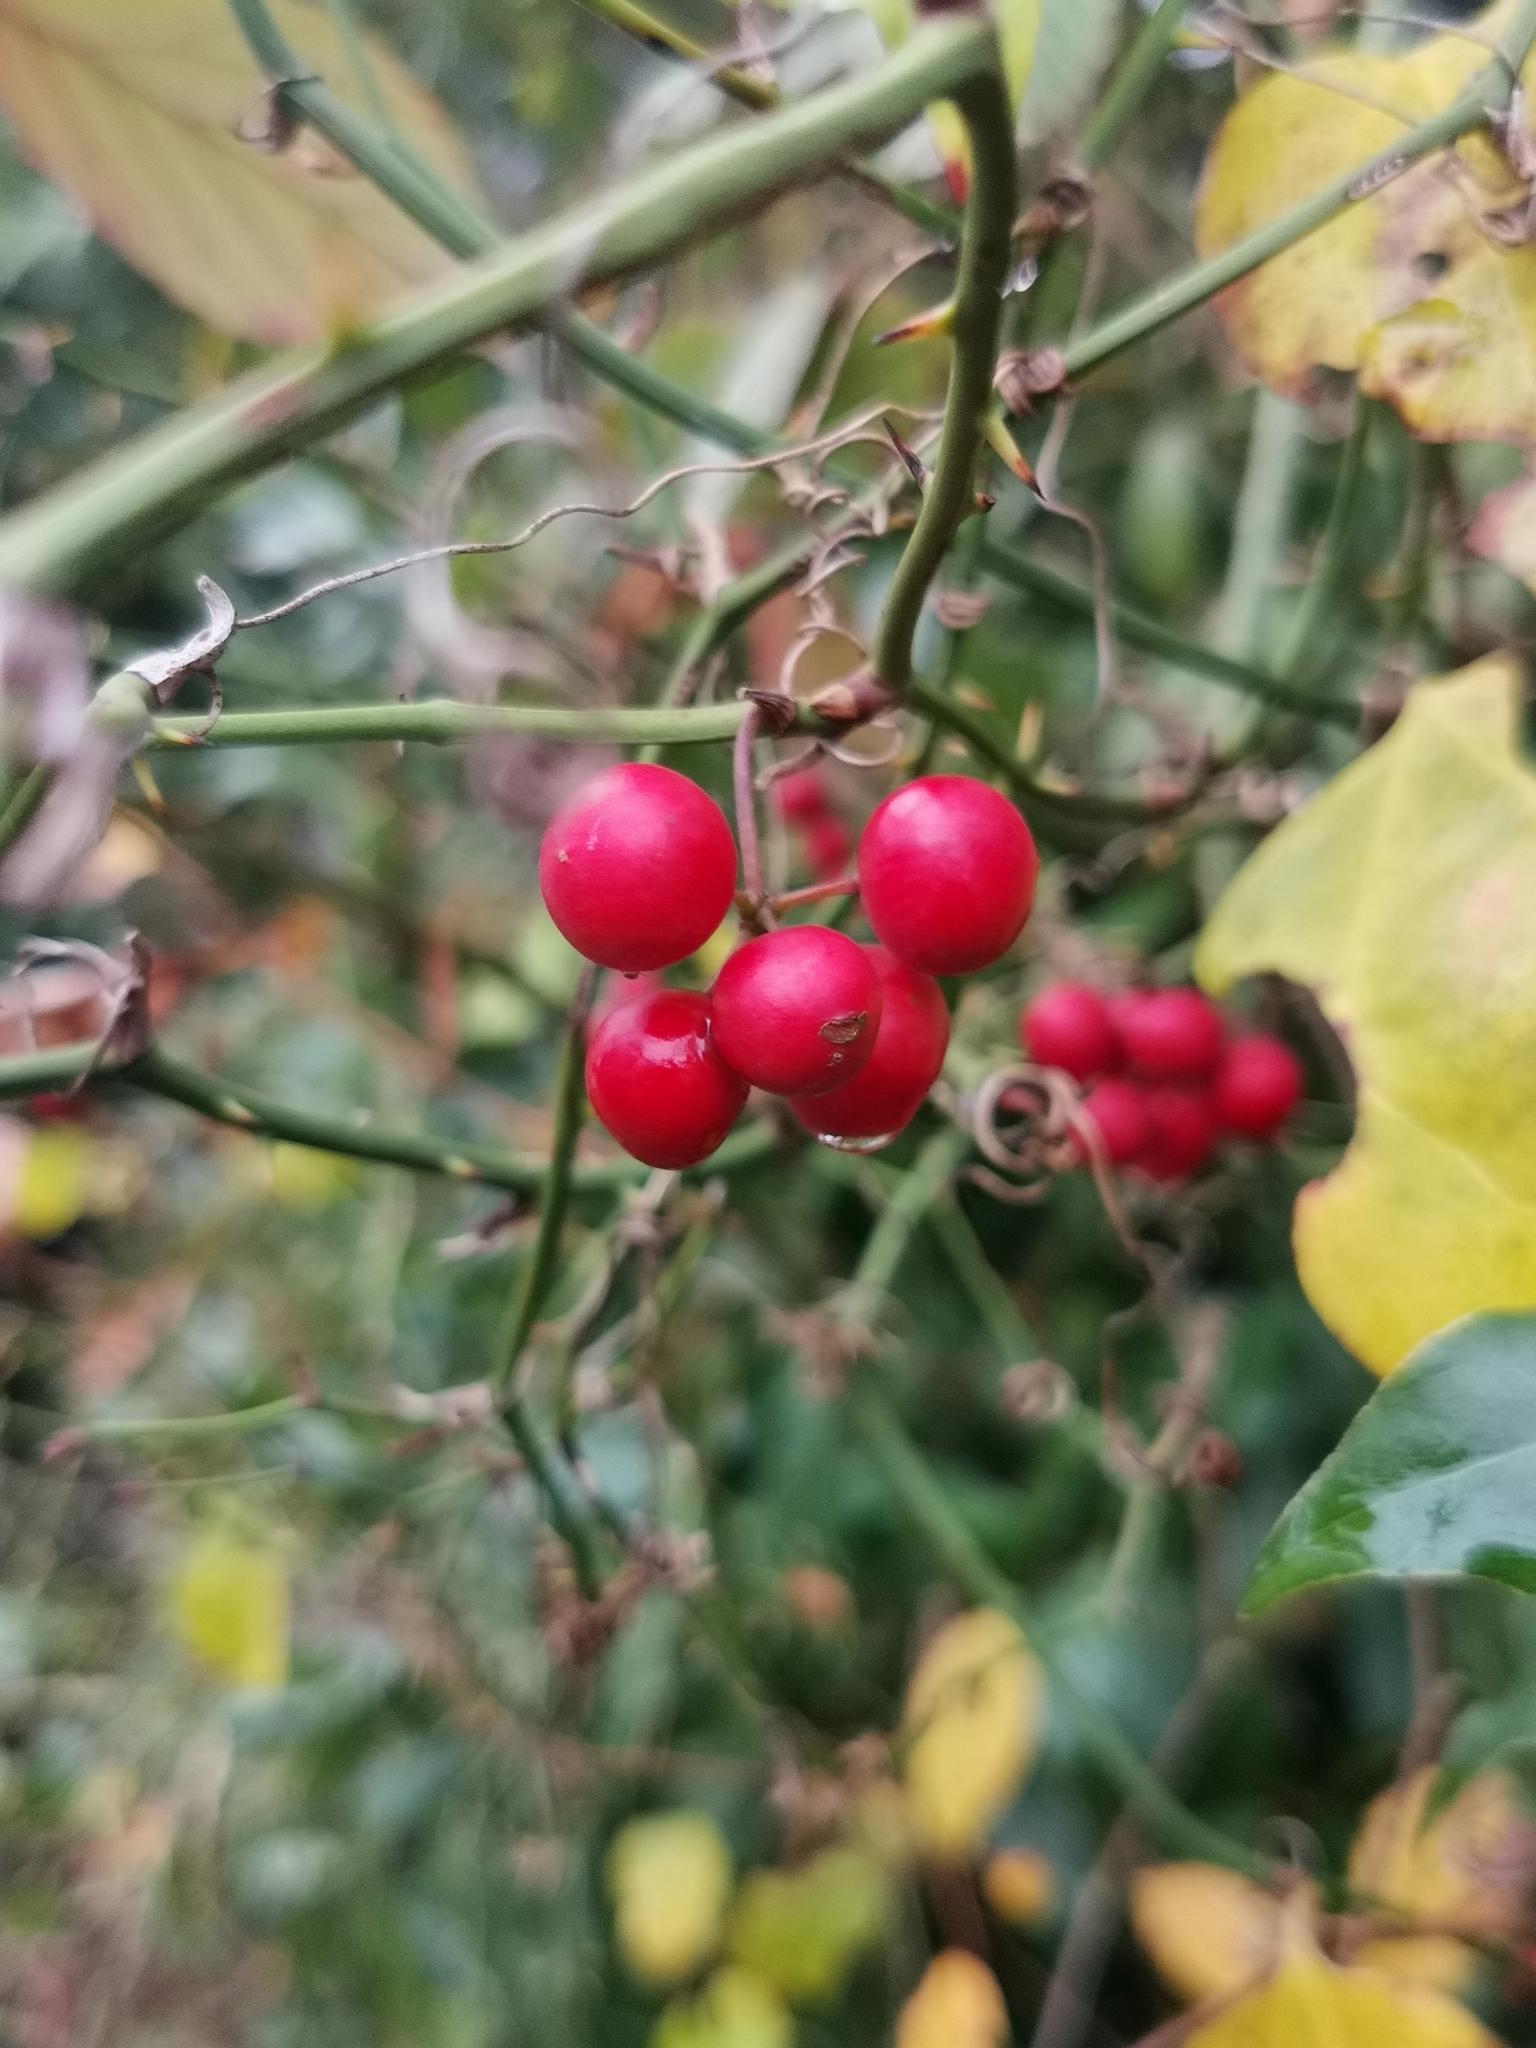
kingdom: Plantae
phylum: Tracheophyta
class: Liliopsida
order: Liliales
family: Smilacaceae
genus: Smilax
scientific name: Smilax excelsa
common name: Larger smilax
